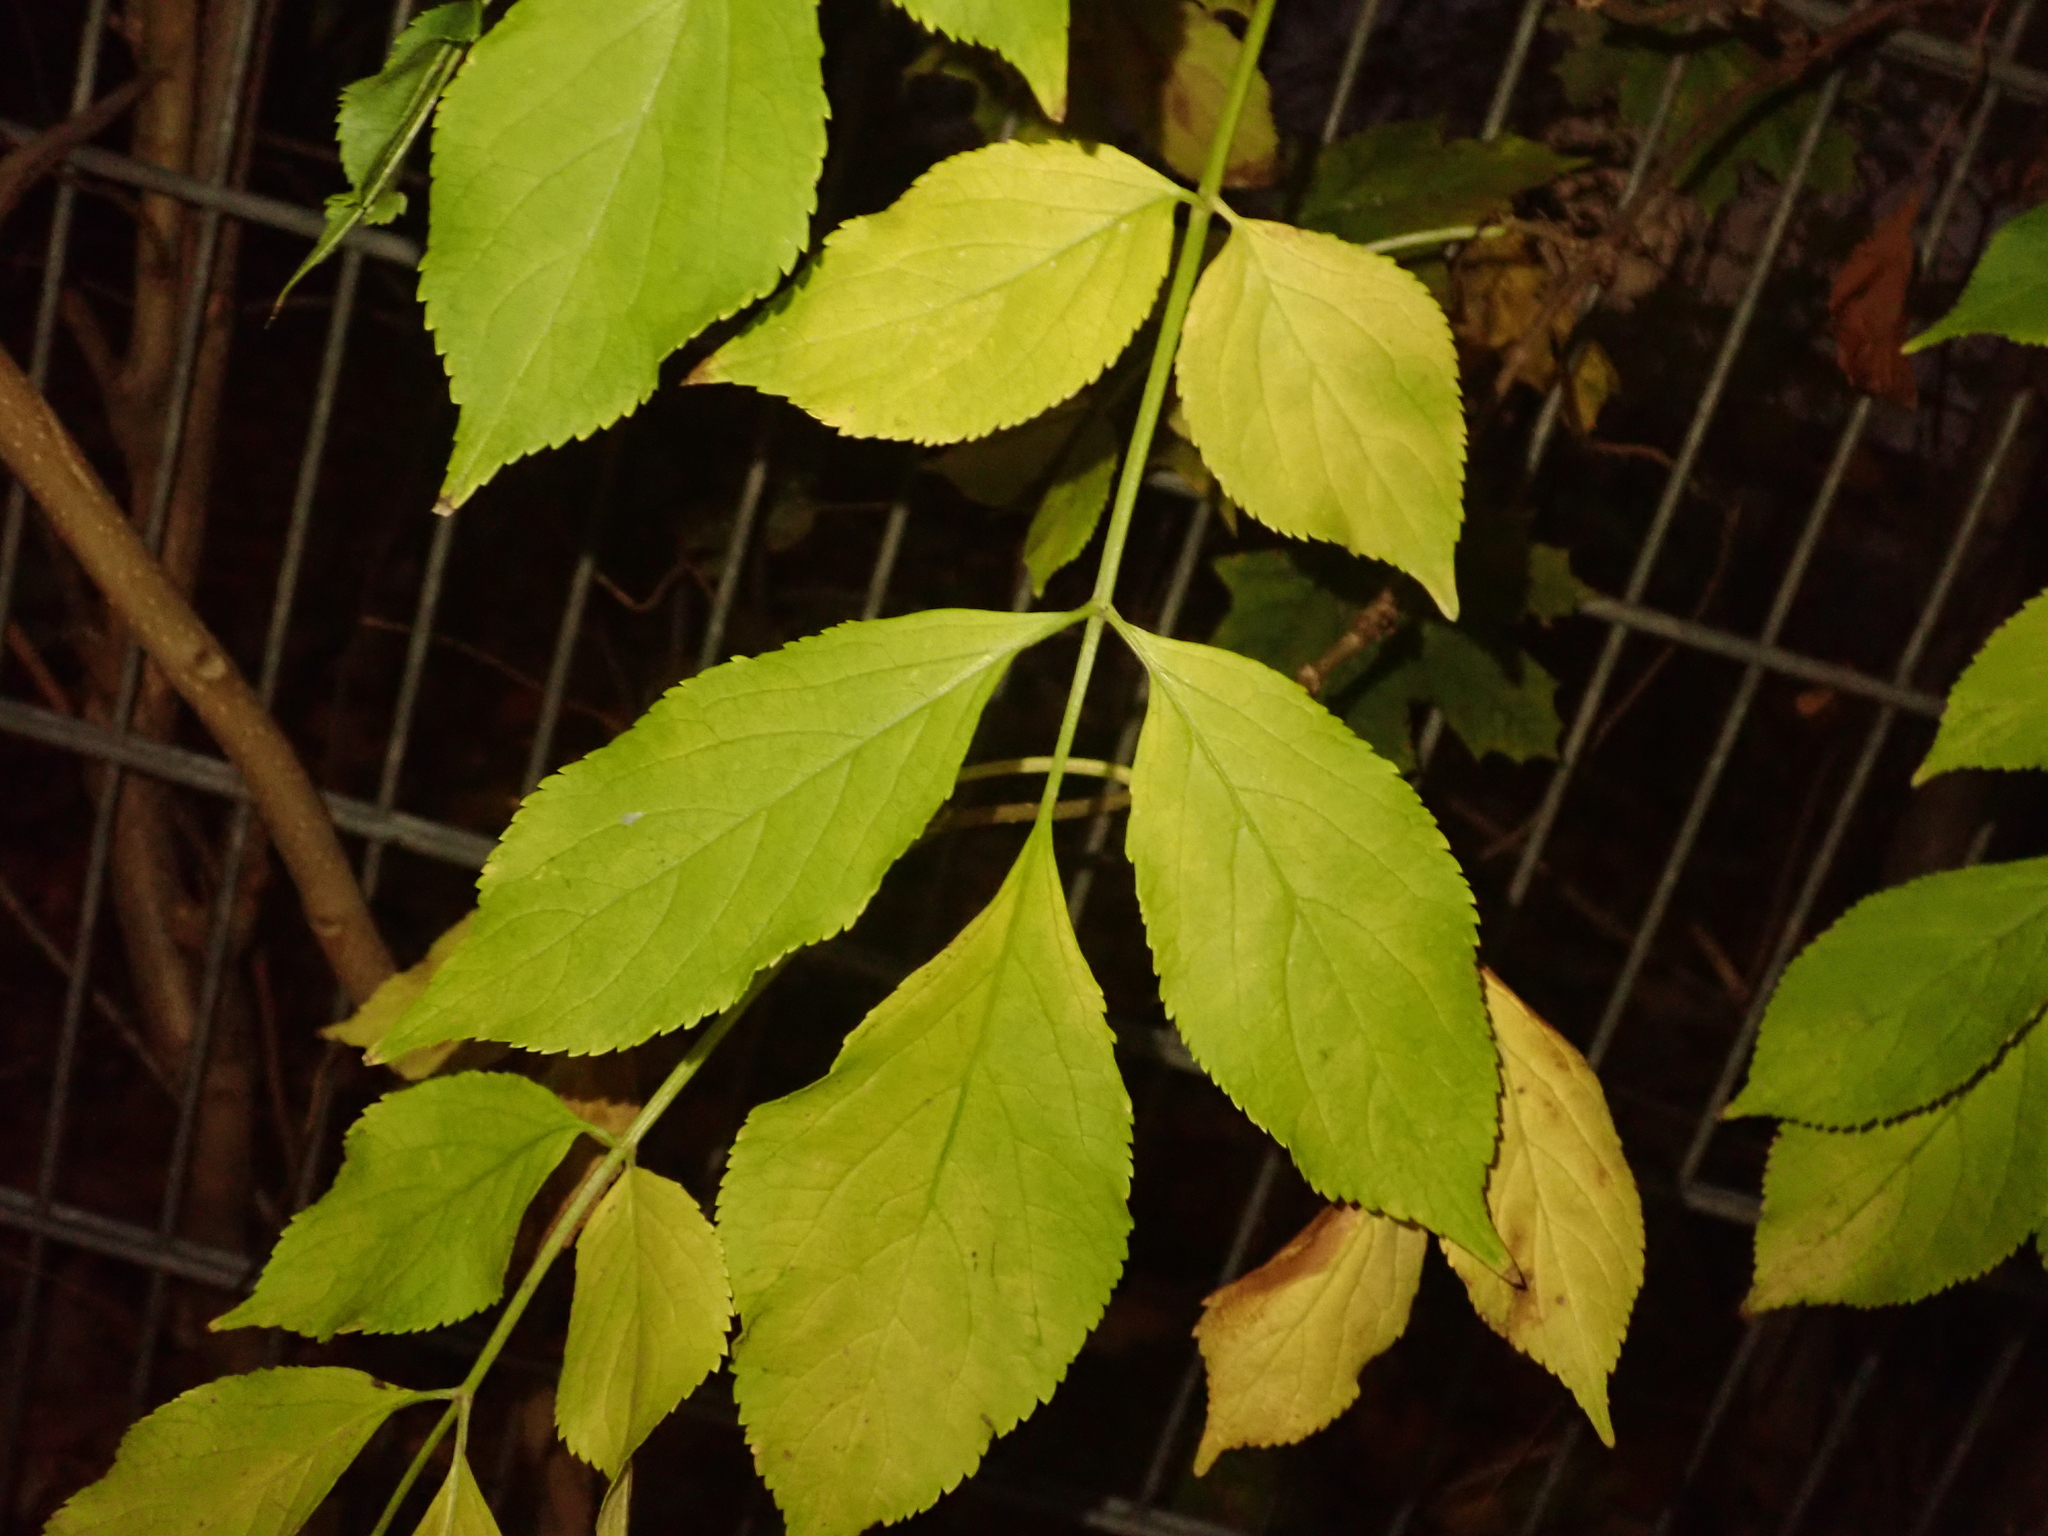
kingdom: Plantae
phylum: Tracheophyta
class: Magnoliopsida
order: Dipsacales
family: Viburnaceae
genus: Sambucus
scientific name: Sambucus nigra
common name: Elder
